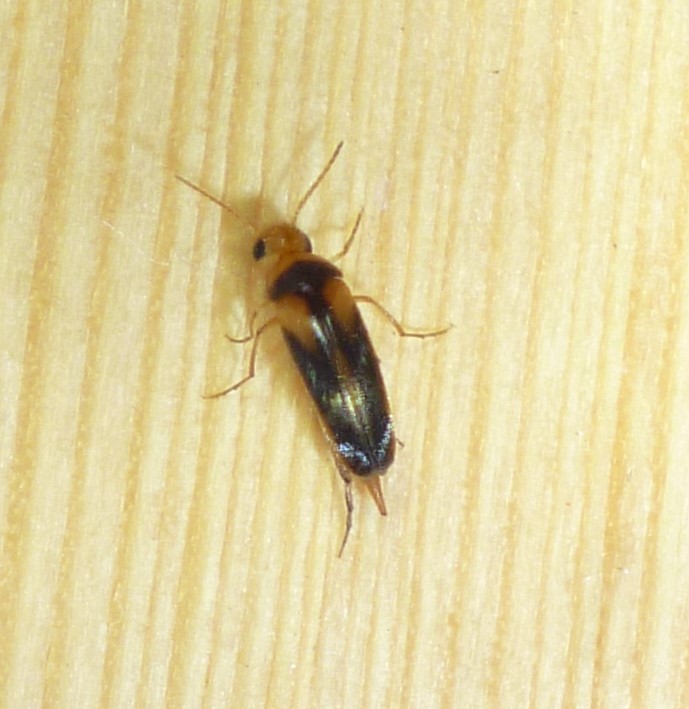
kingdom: Animalia
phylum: Arthropoda
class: Insecta
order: Coleoptera
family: Mordellidae
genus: Mordellistena
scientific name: Mordellistena ornata
